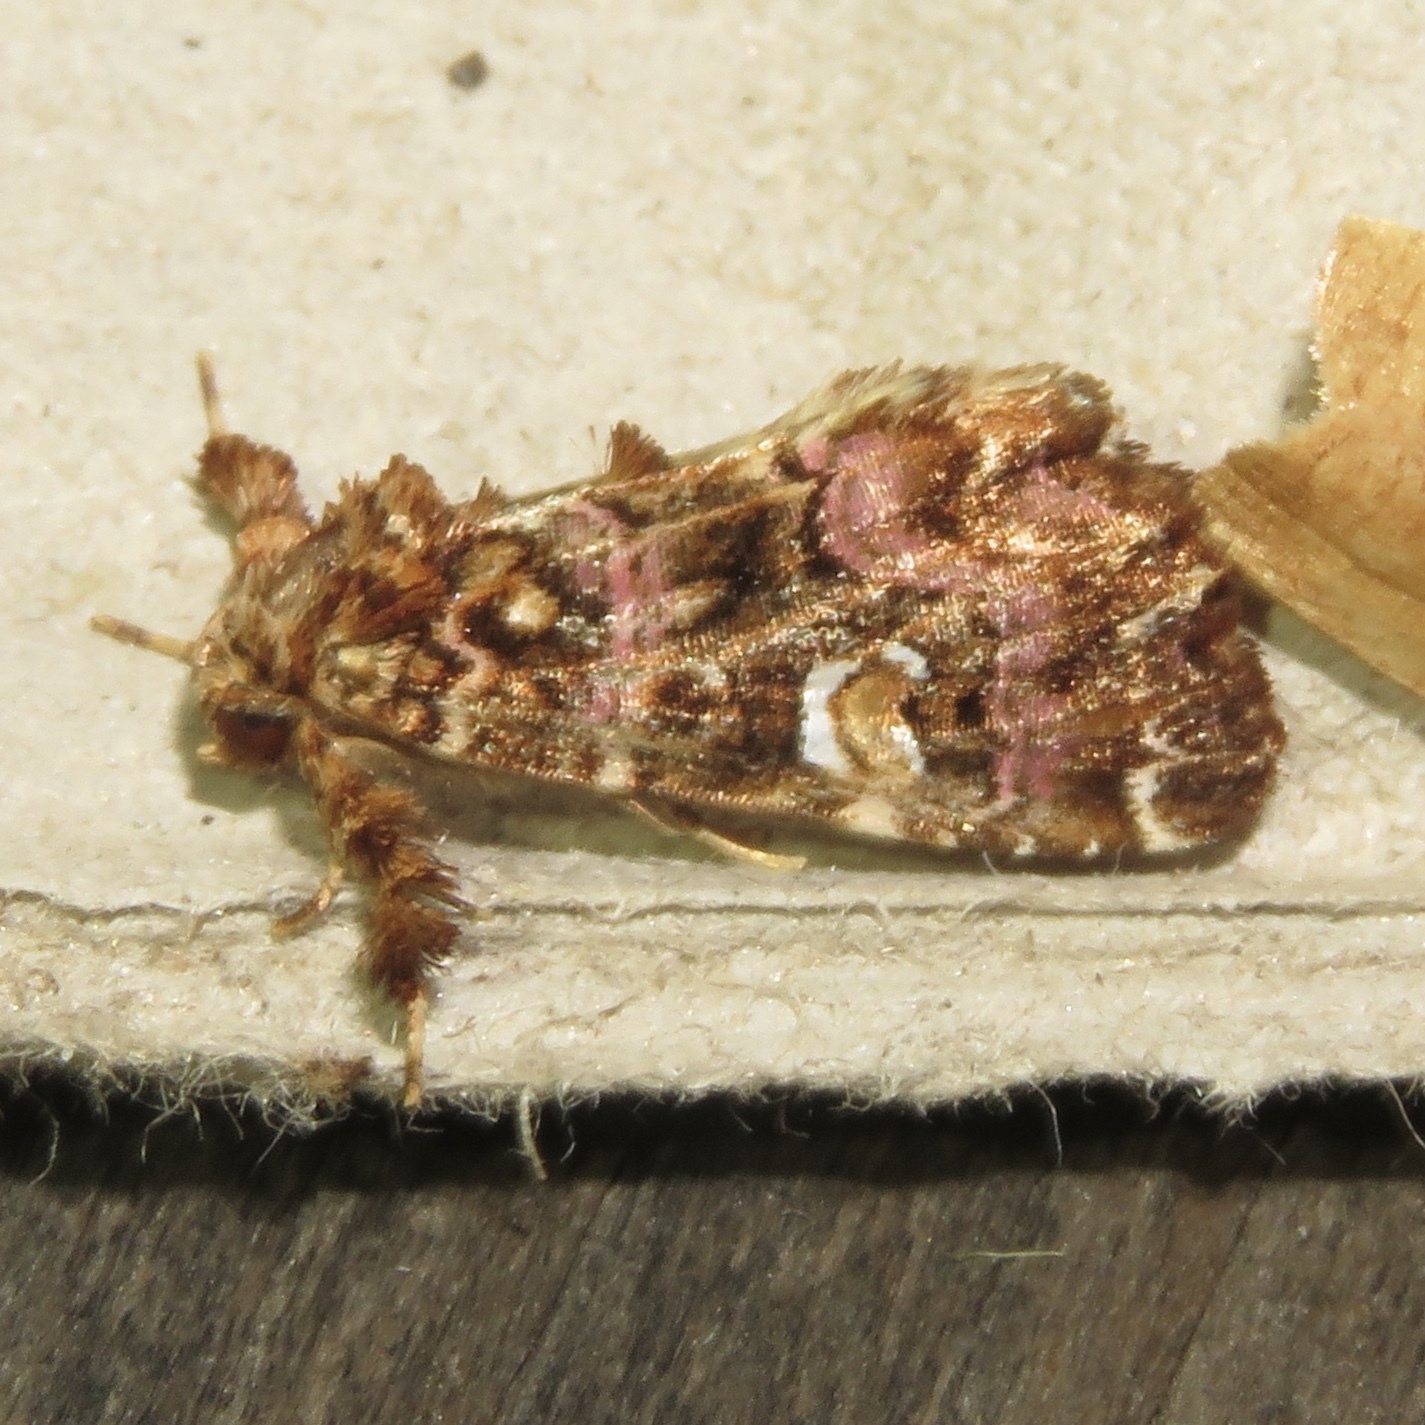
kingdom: Animalia
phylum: Arthropoda
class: Insecta
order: Lepidoptera
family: Noctuidae
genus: Callopistria
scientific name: Callopistria mollissima
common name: Pink-shaded fern moth
